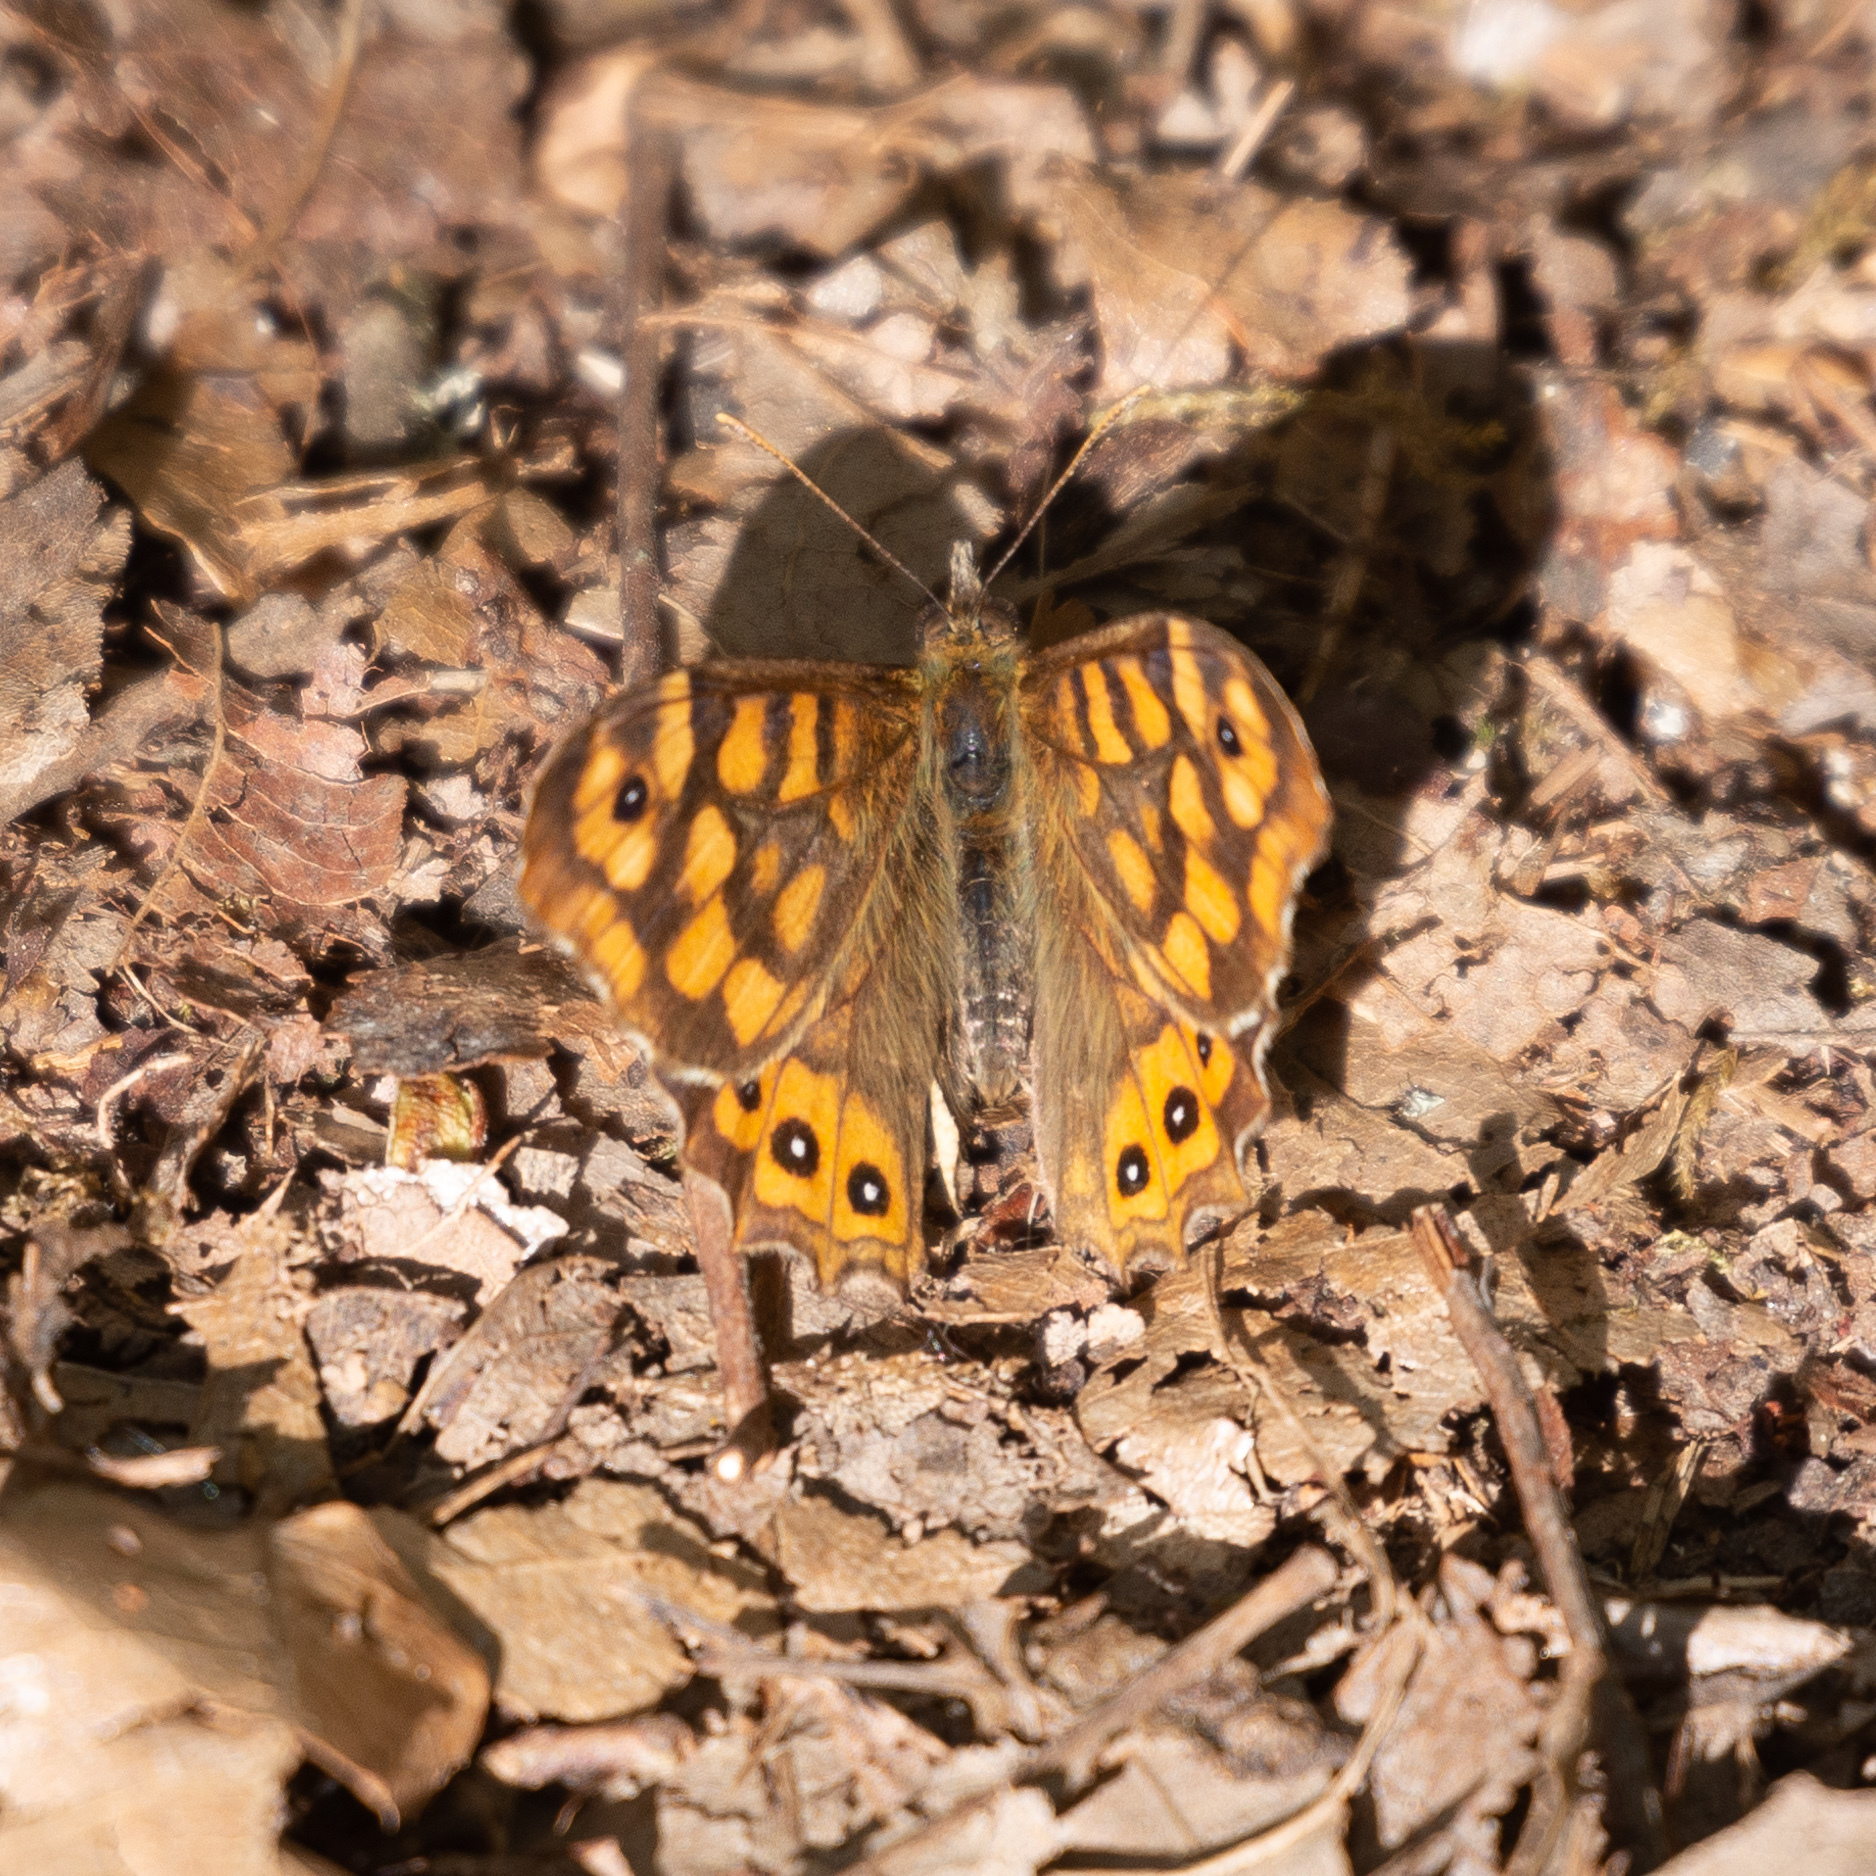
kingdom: Animalia
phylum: Arthropoda
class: Insecta
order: Lepidoptera
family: Nymphalidae
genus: Pararge
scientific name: Pararge aegeria
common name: Speckled wood
